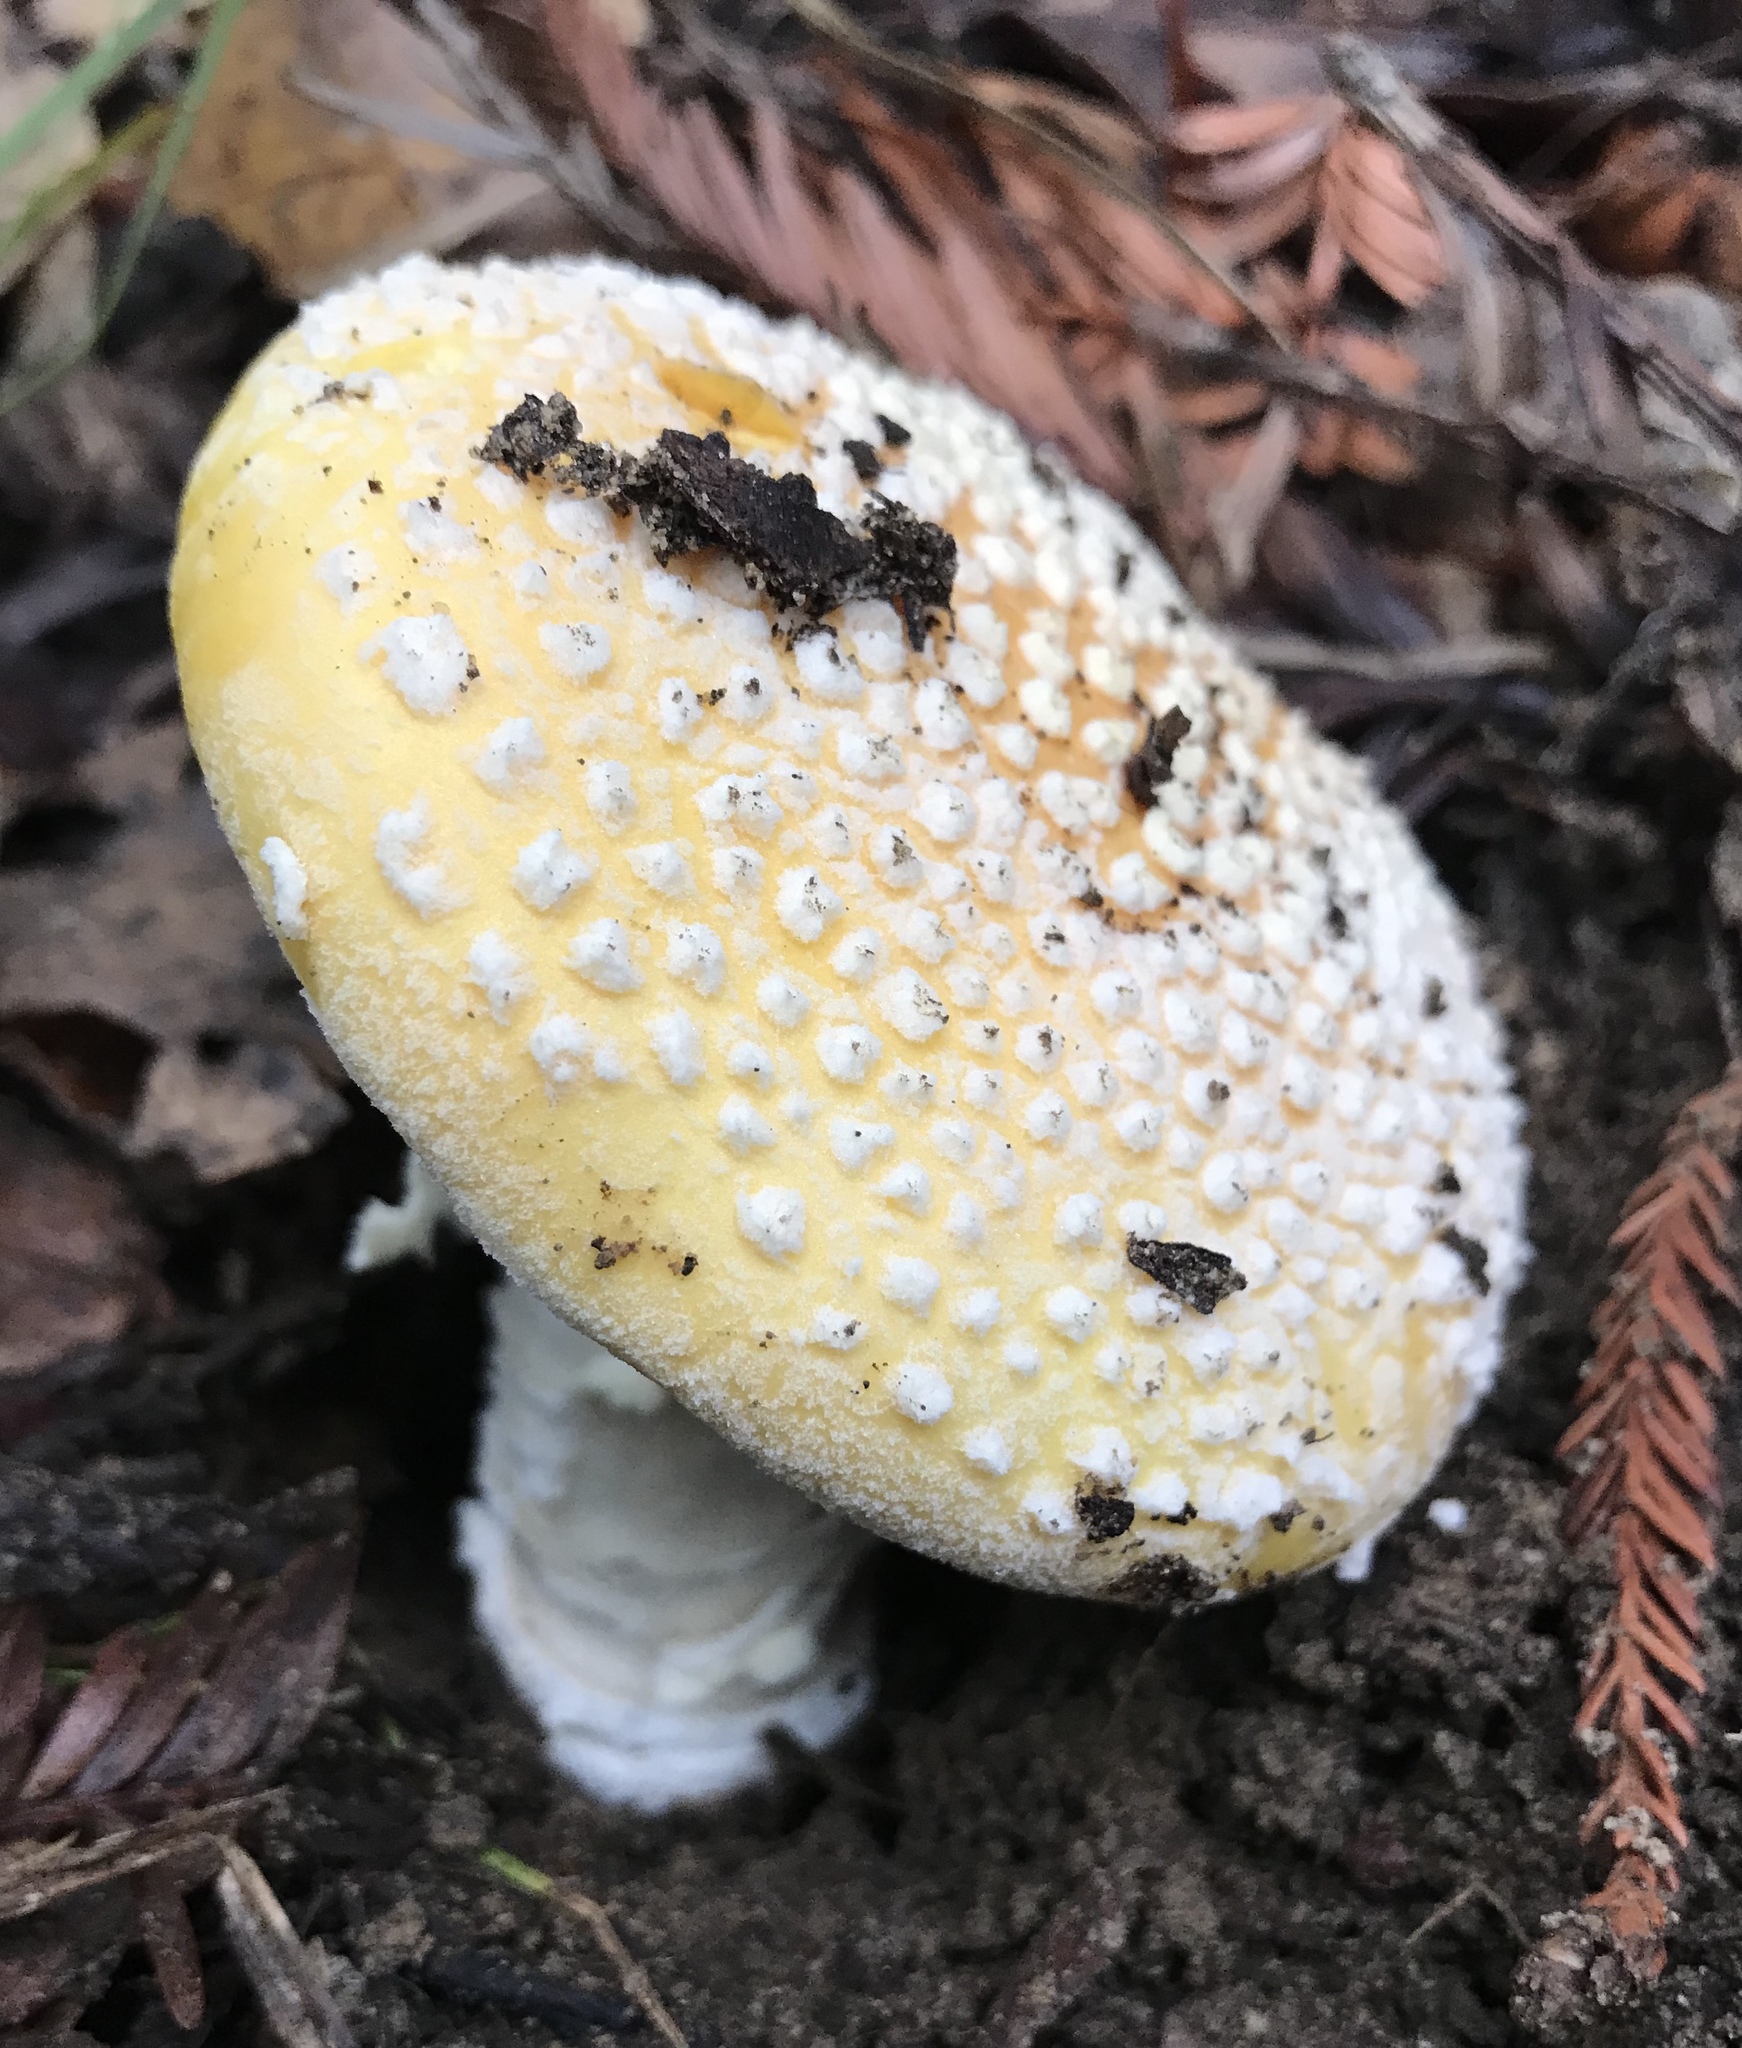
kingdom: Fungi
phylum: Basidiomycota
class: Agaricomycetes
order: Agaricales
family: Amanitaceae
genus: Amanita
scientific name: Amanita muscaria
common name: Fly agaric
